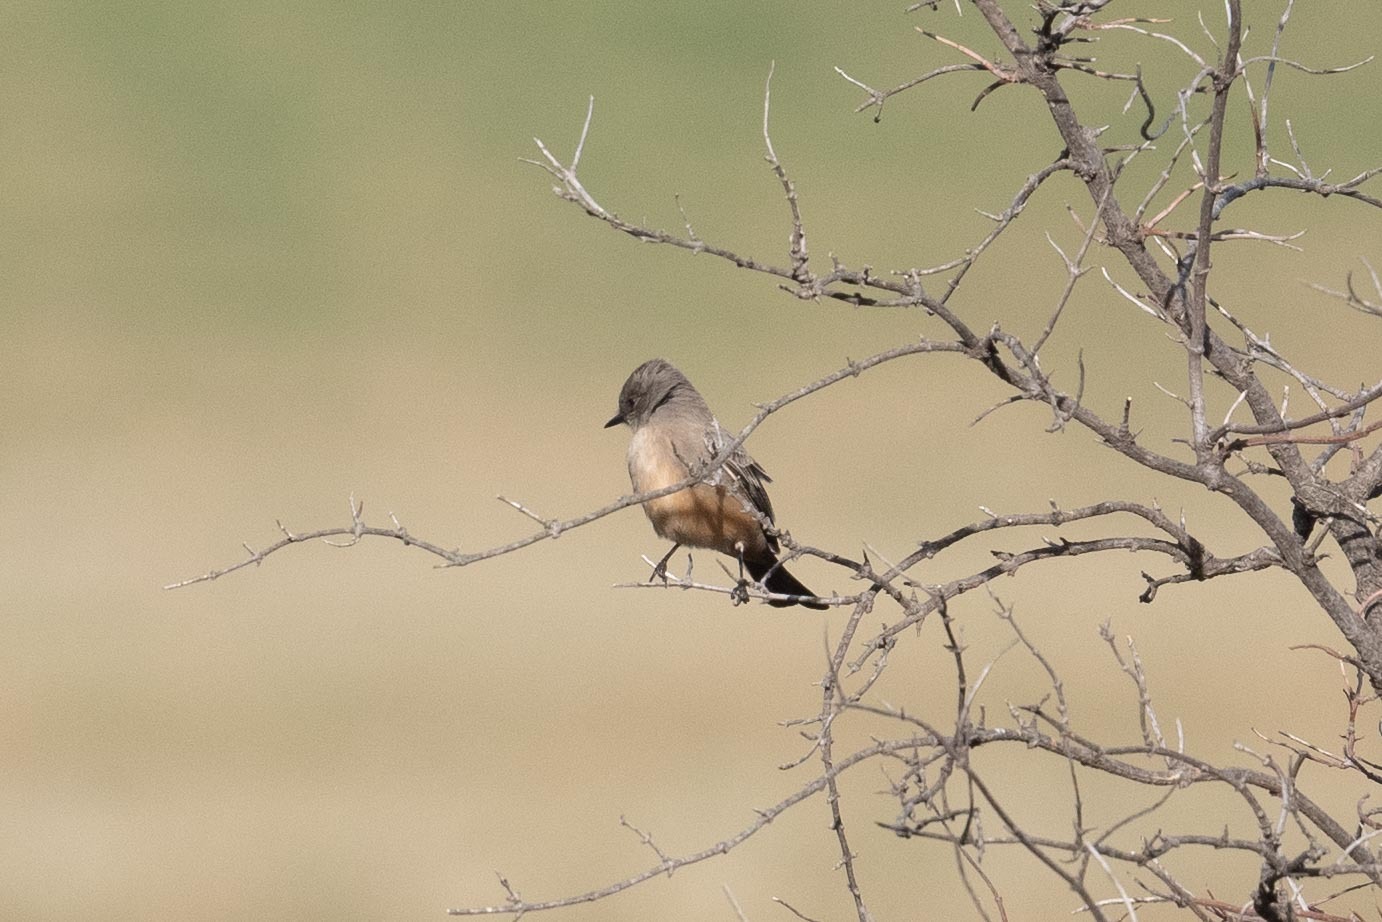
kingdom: Animalia
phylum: Chordata
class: Aves
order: Passeriformes
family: Tyrannidae
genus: Sayornis
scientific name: Sayornis saya
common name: Say's phoebe
